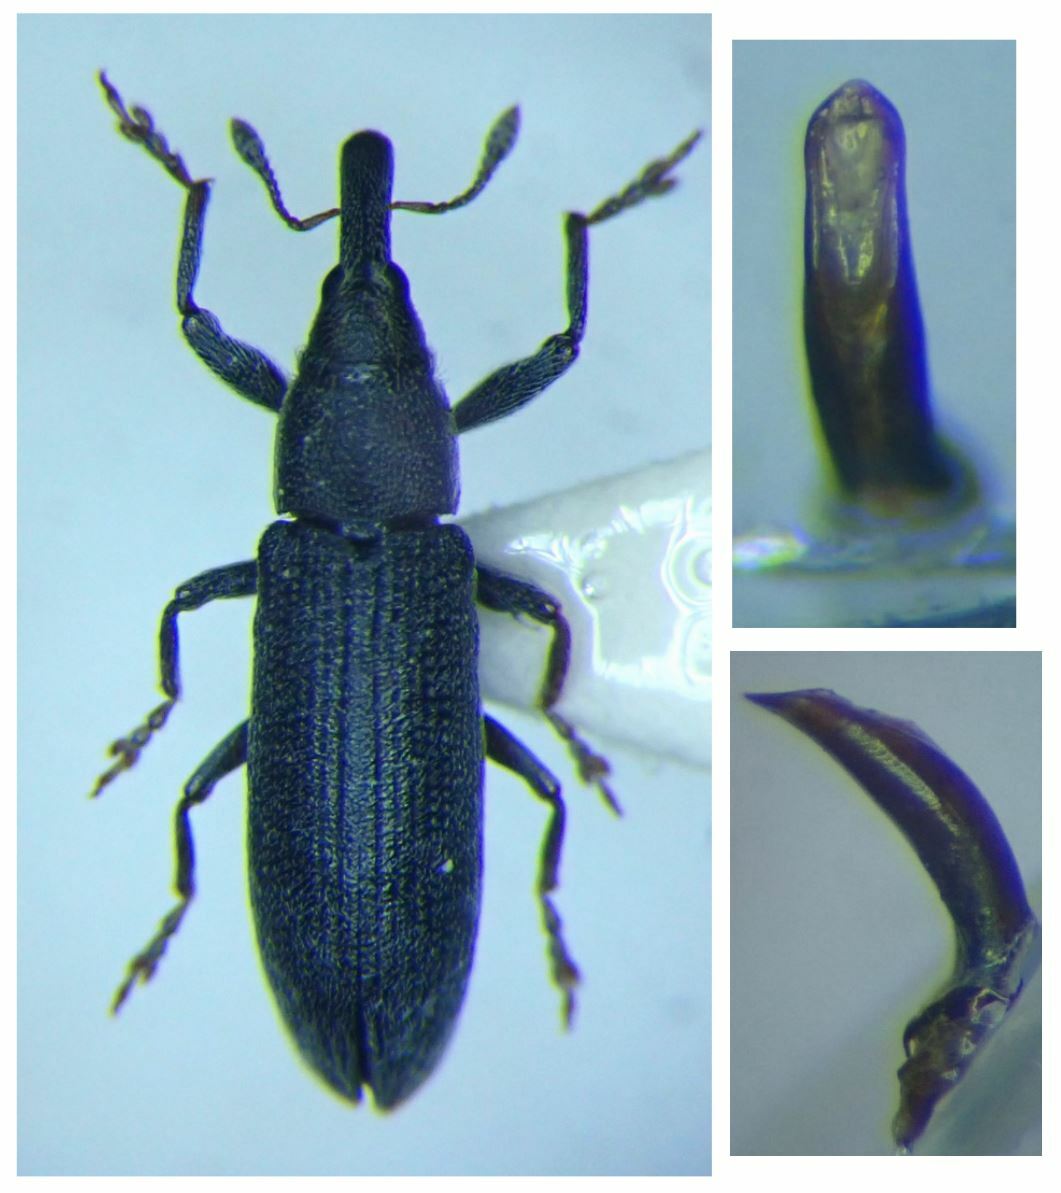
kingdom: Animalia
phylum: Arthropoda
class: Insecta
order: Coleoptera
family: Curculionidae
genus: Lixus
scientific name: Lixus filiformis
